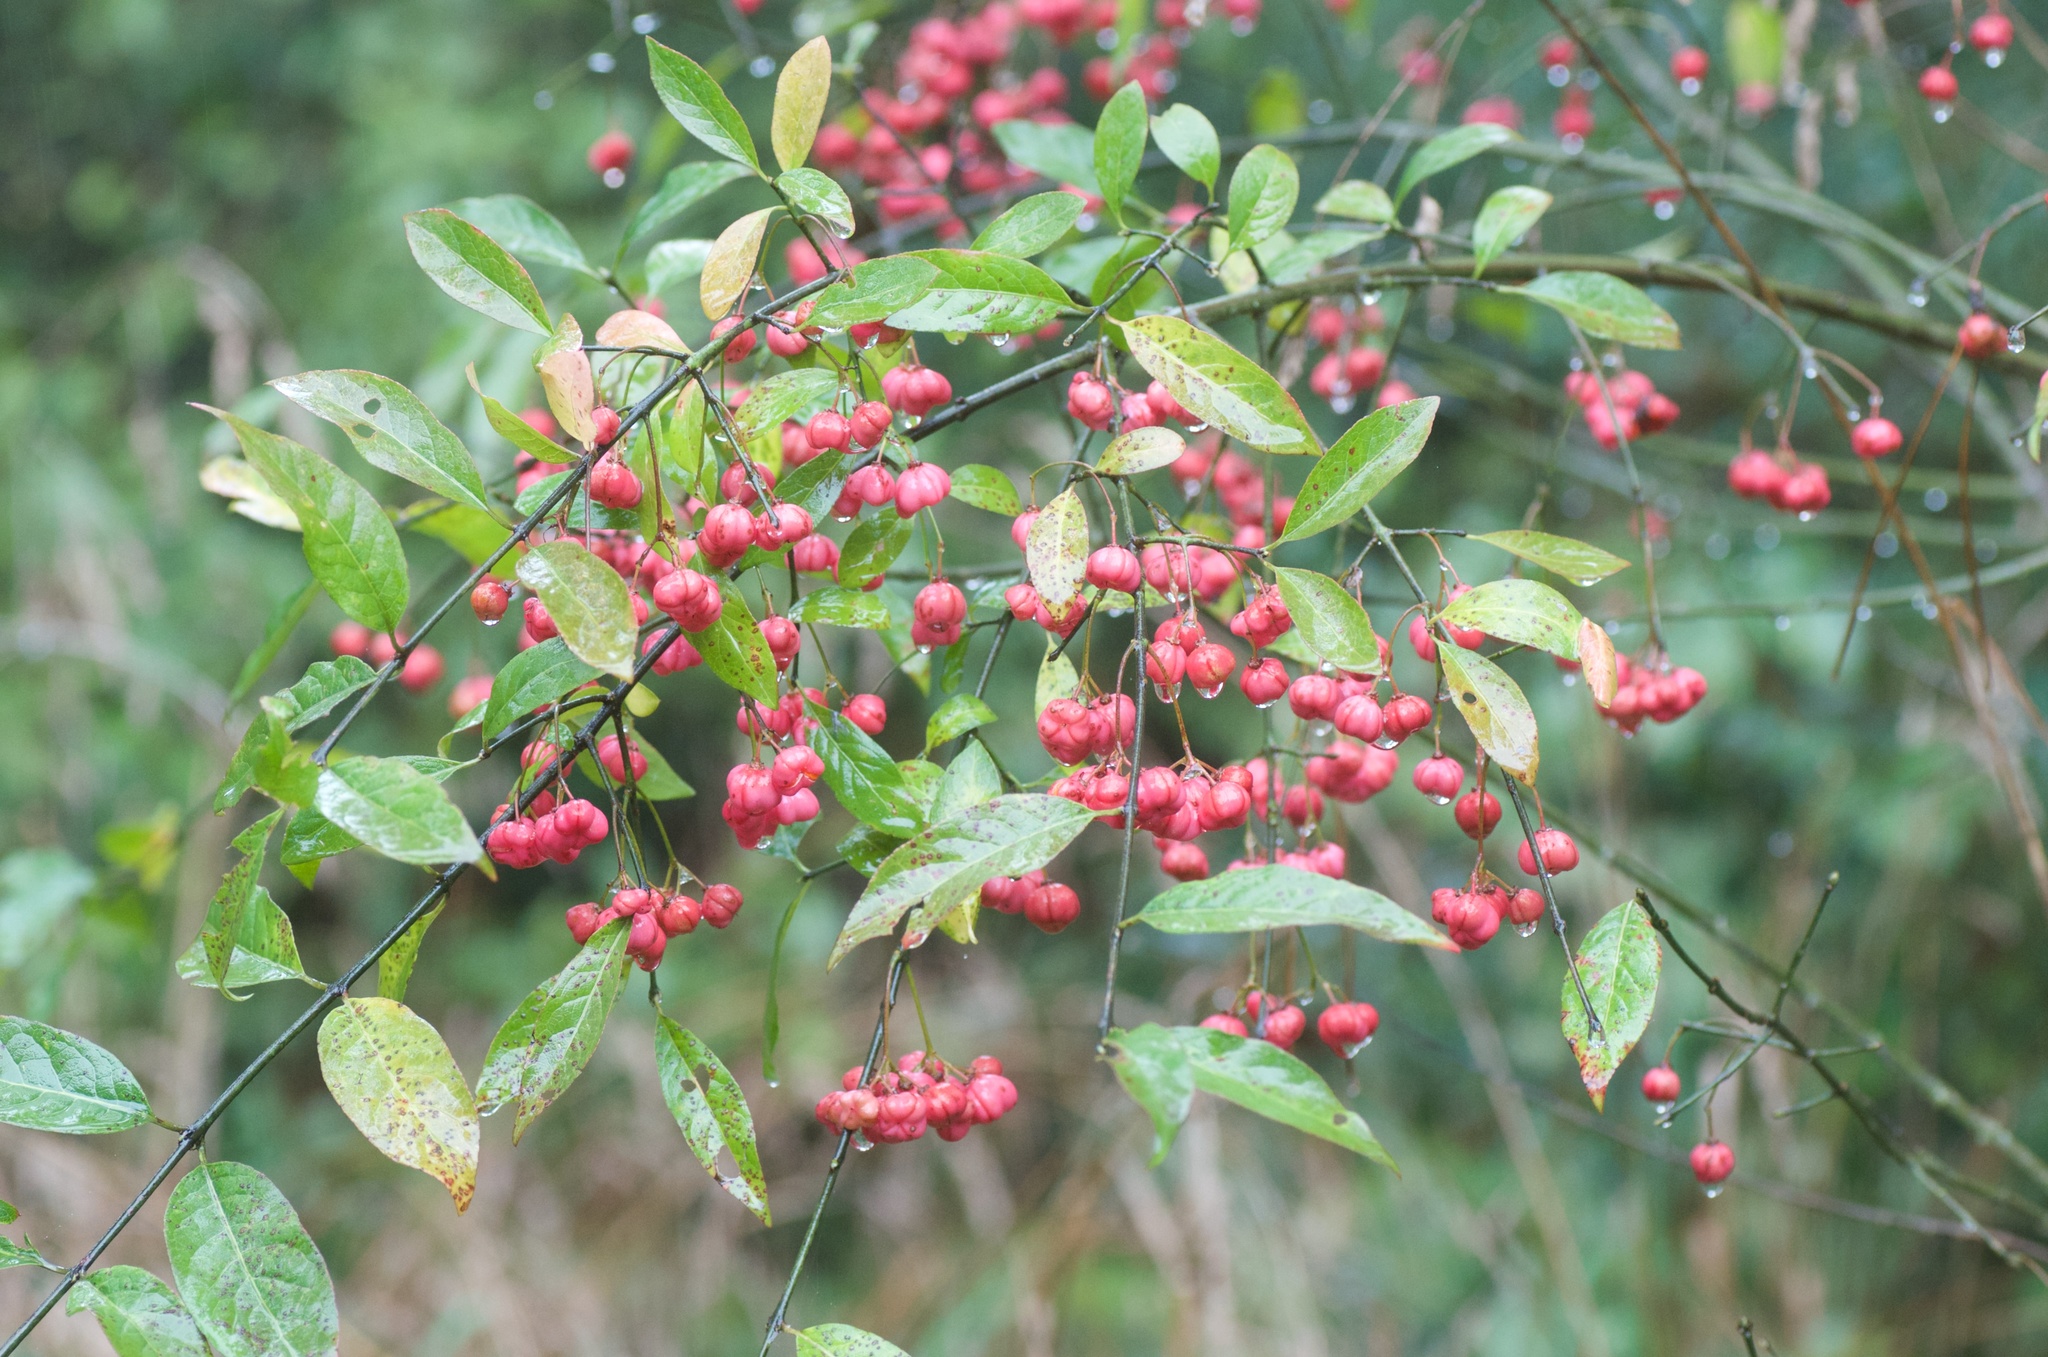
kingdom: Plantae
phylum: Tracheophyta
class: Magnoliopsida
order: Celastrales
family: Celastraceae
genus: Euonymus
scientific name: Euonymus europaeus
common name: Spindle
